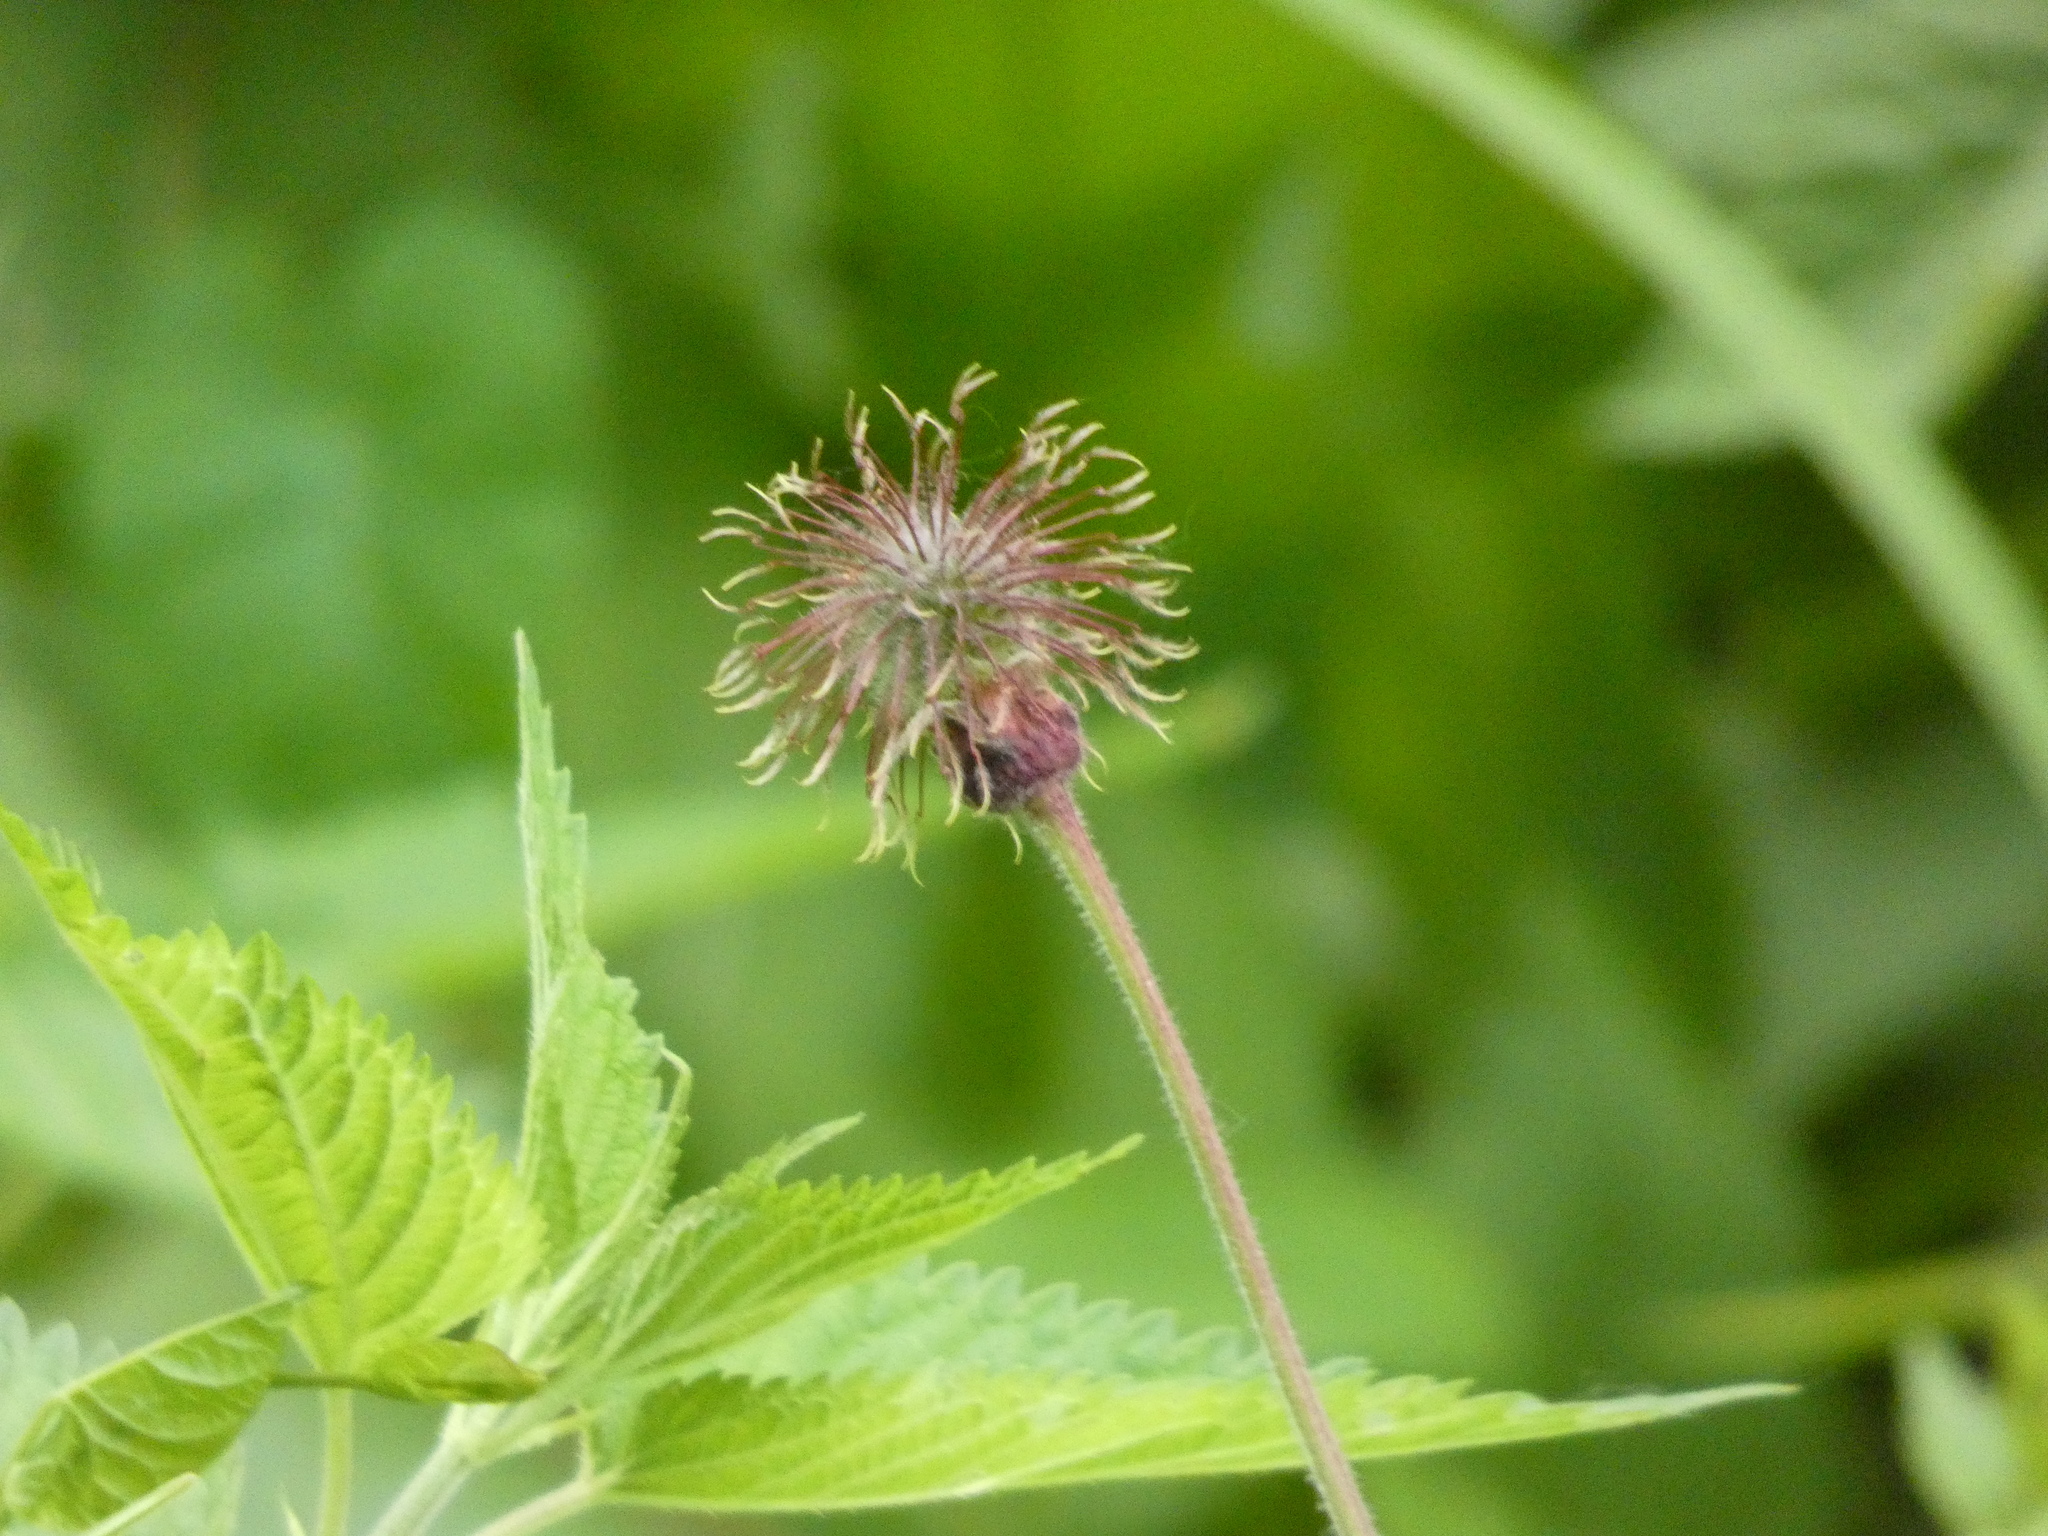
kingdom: Plantae
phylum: Tracheophyta
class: Magnoliopsida
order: Rosales
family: Rosaceae
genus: Geum
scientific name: Geum rivale
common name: Water avens
